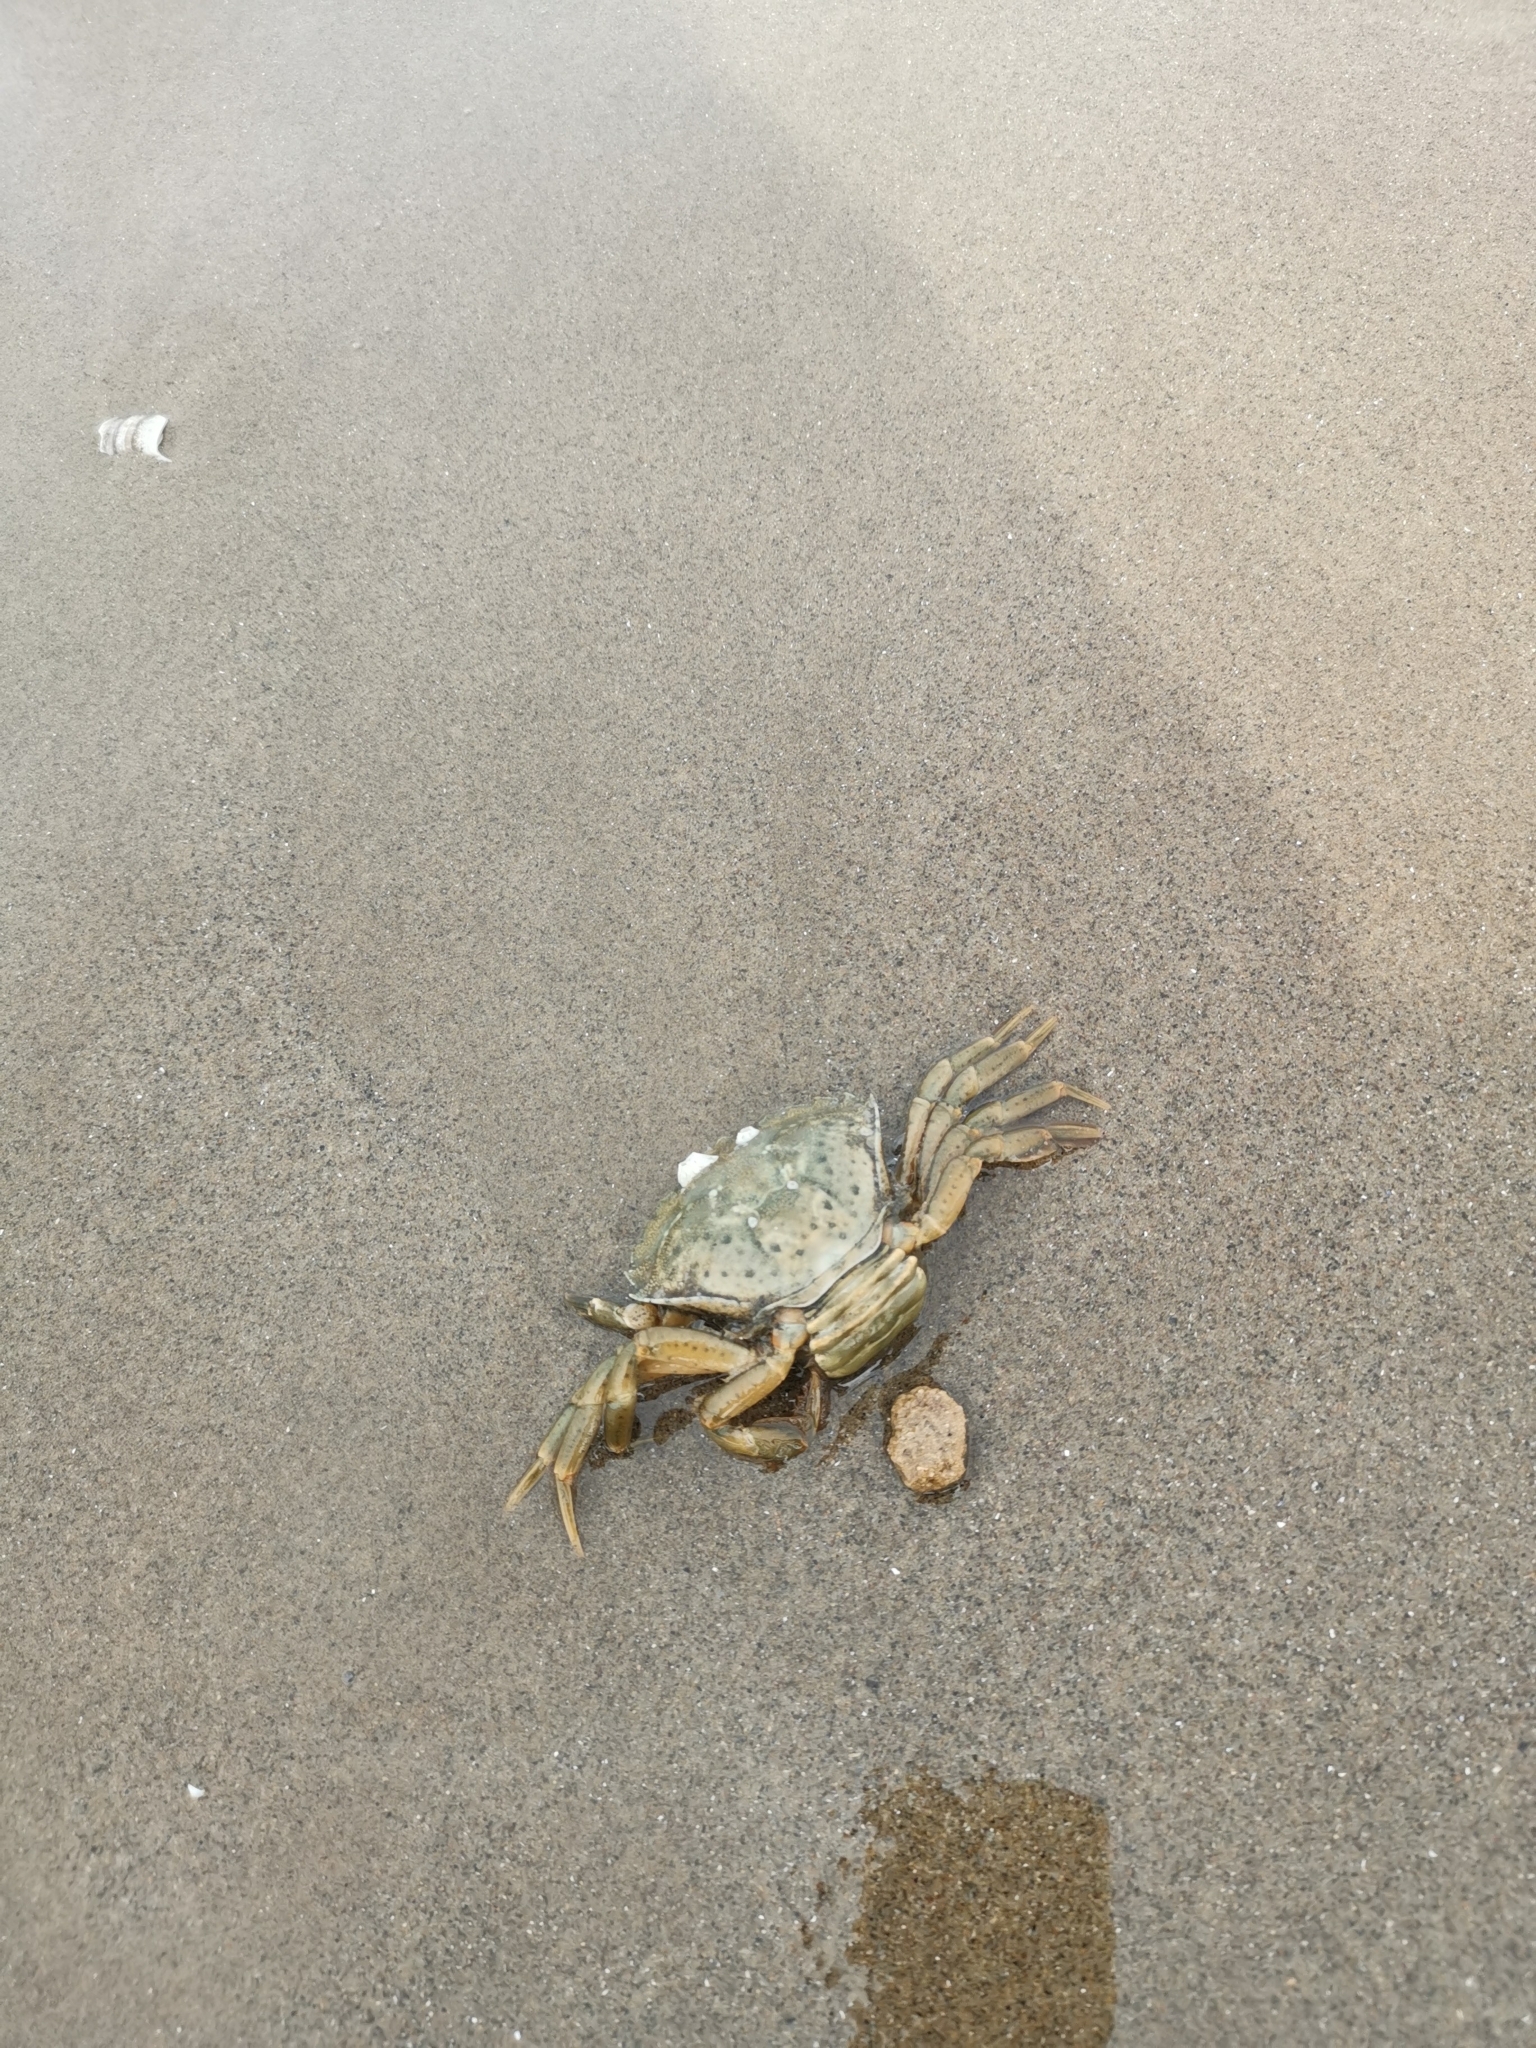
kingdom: Animalia
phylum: Arthropoda
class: Malacostraca
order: Decapoda
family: Carcinidae
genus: Carcinus
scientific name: Carcinus maenas
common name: European green crab
